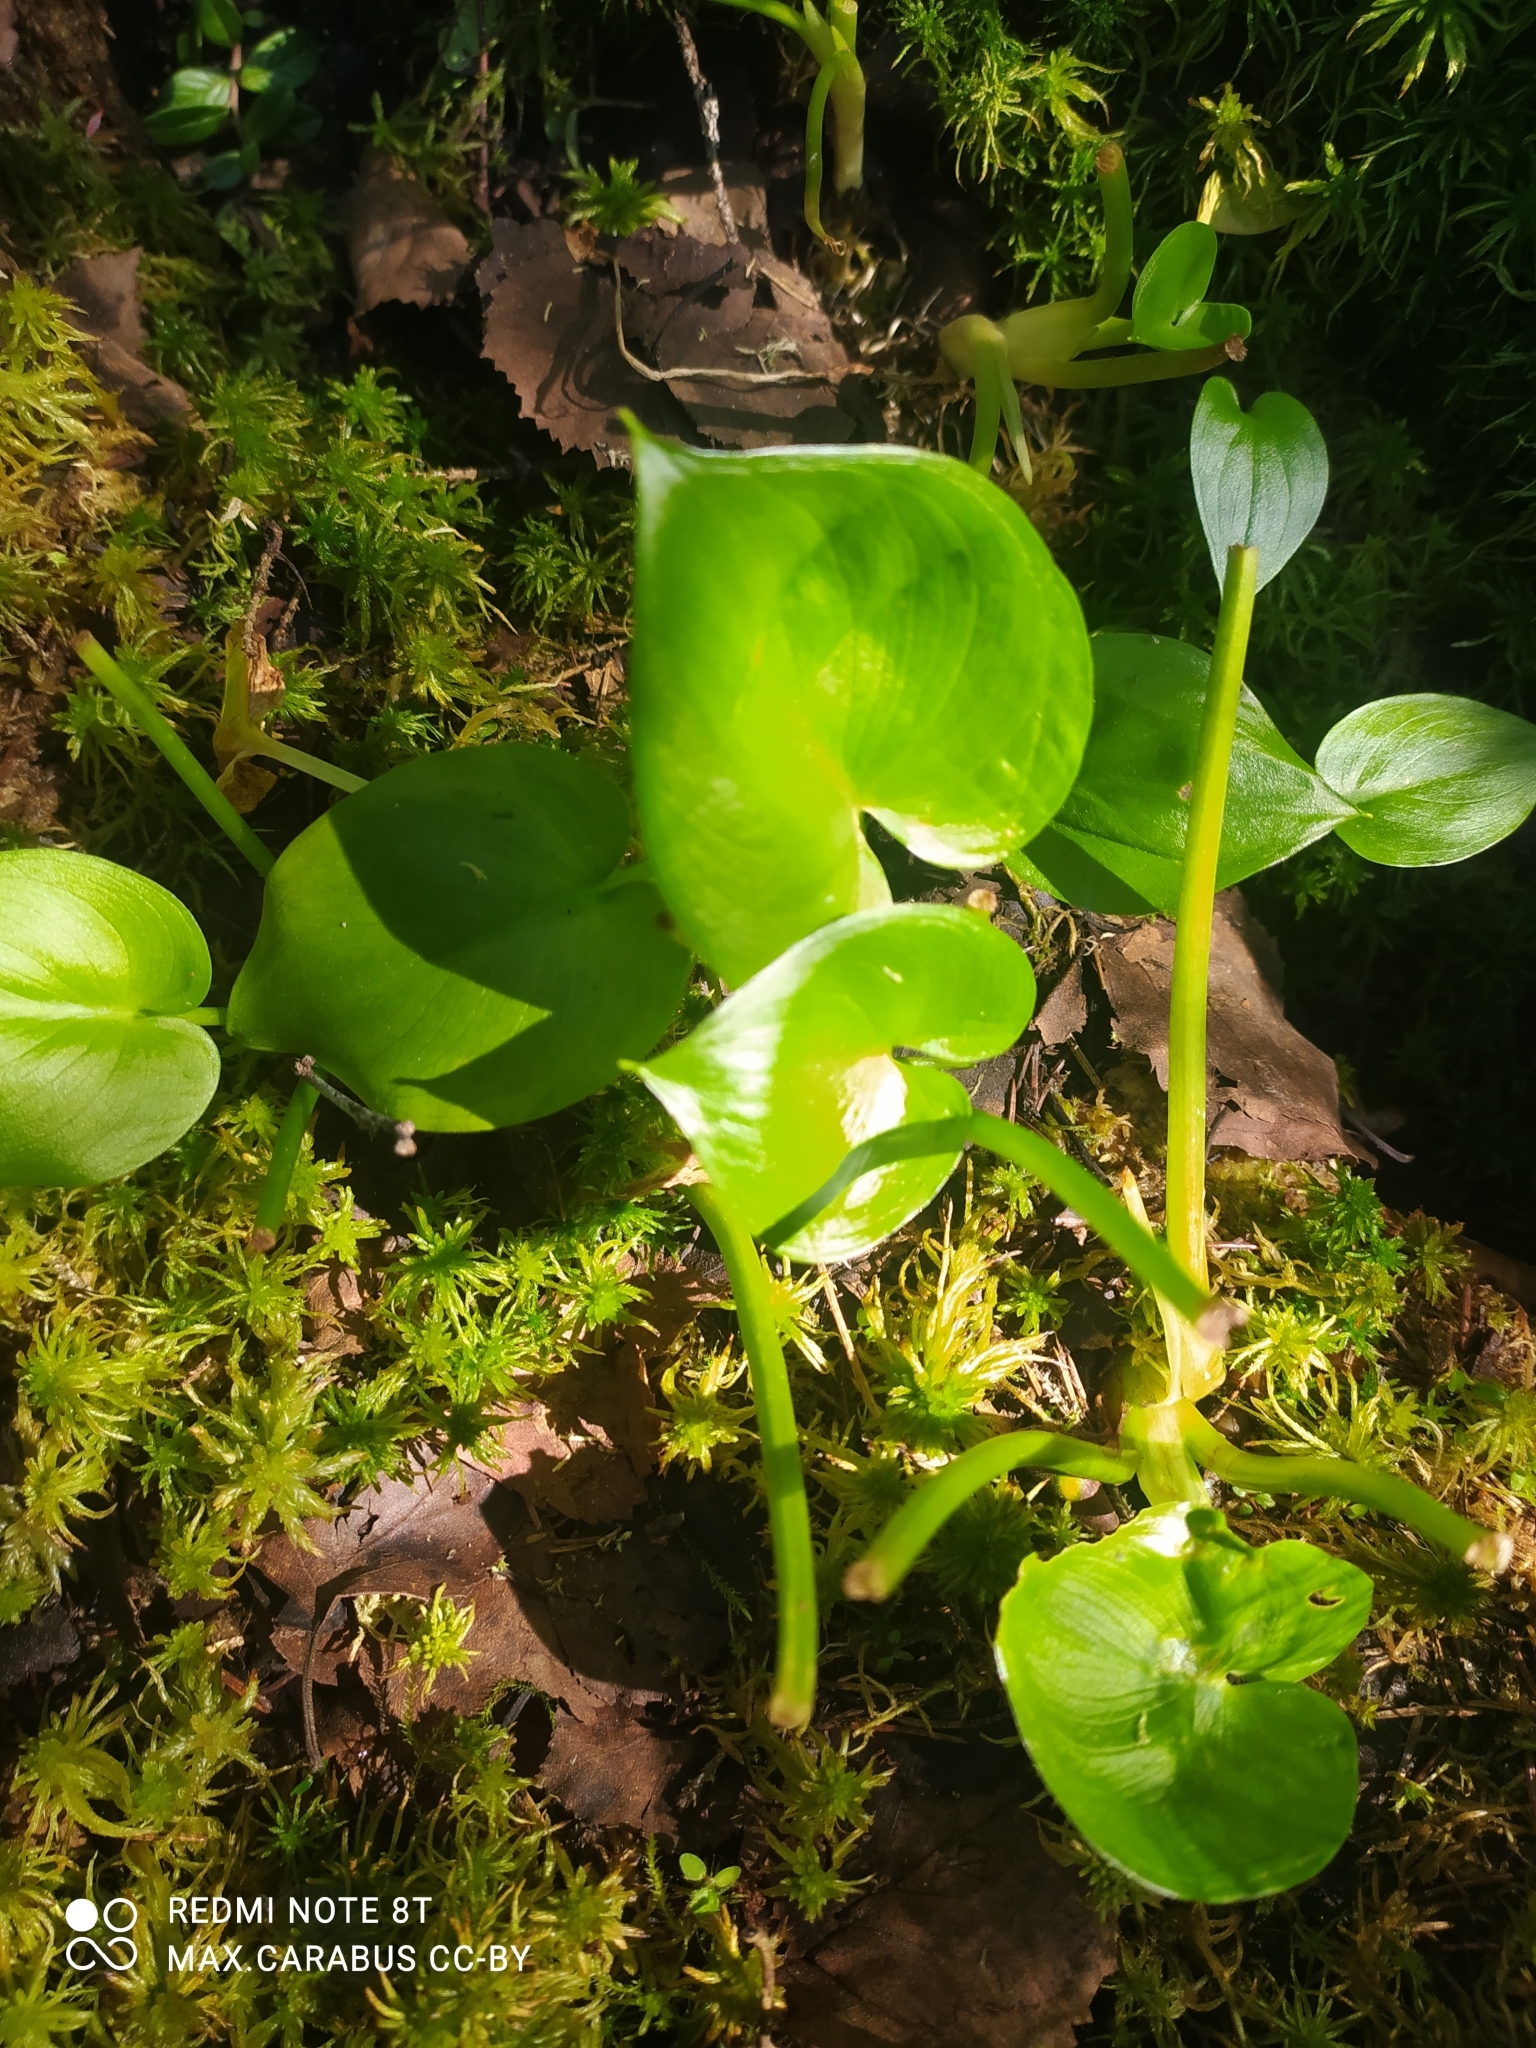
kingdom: Plantae
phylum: Tracheophyta
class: Liliopsida
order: Alismatales
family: Araceae
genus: Calla
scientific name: Calla palustris
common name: Bog arum
